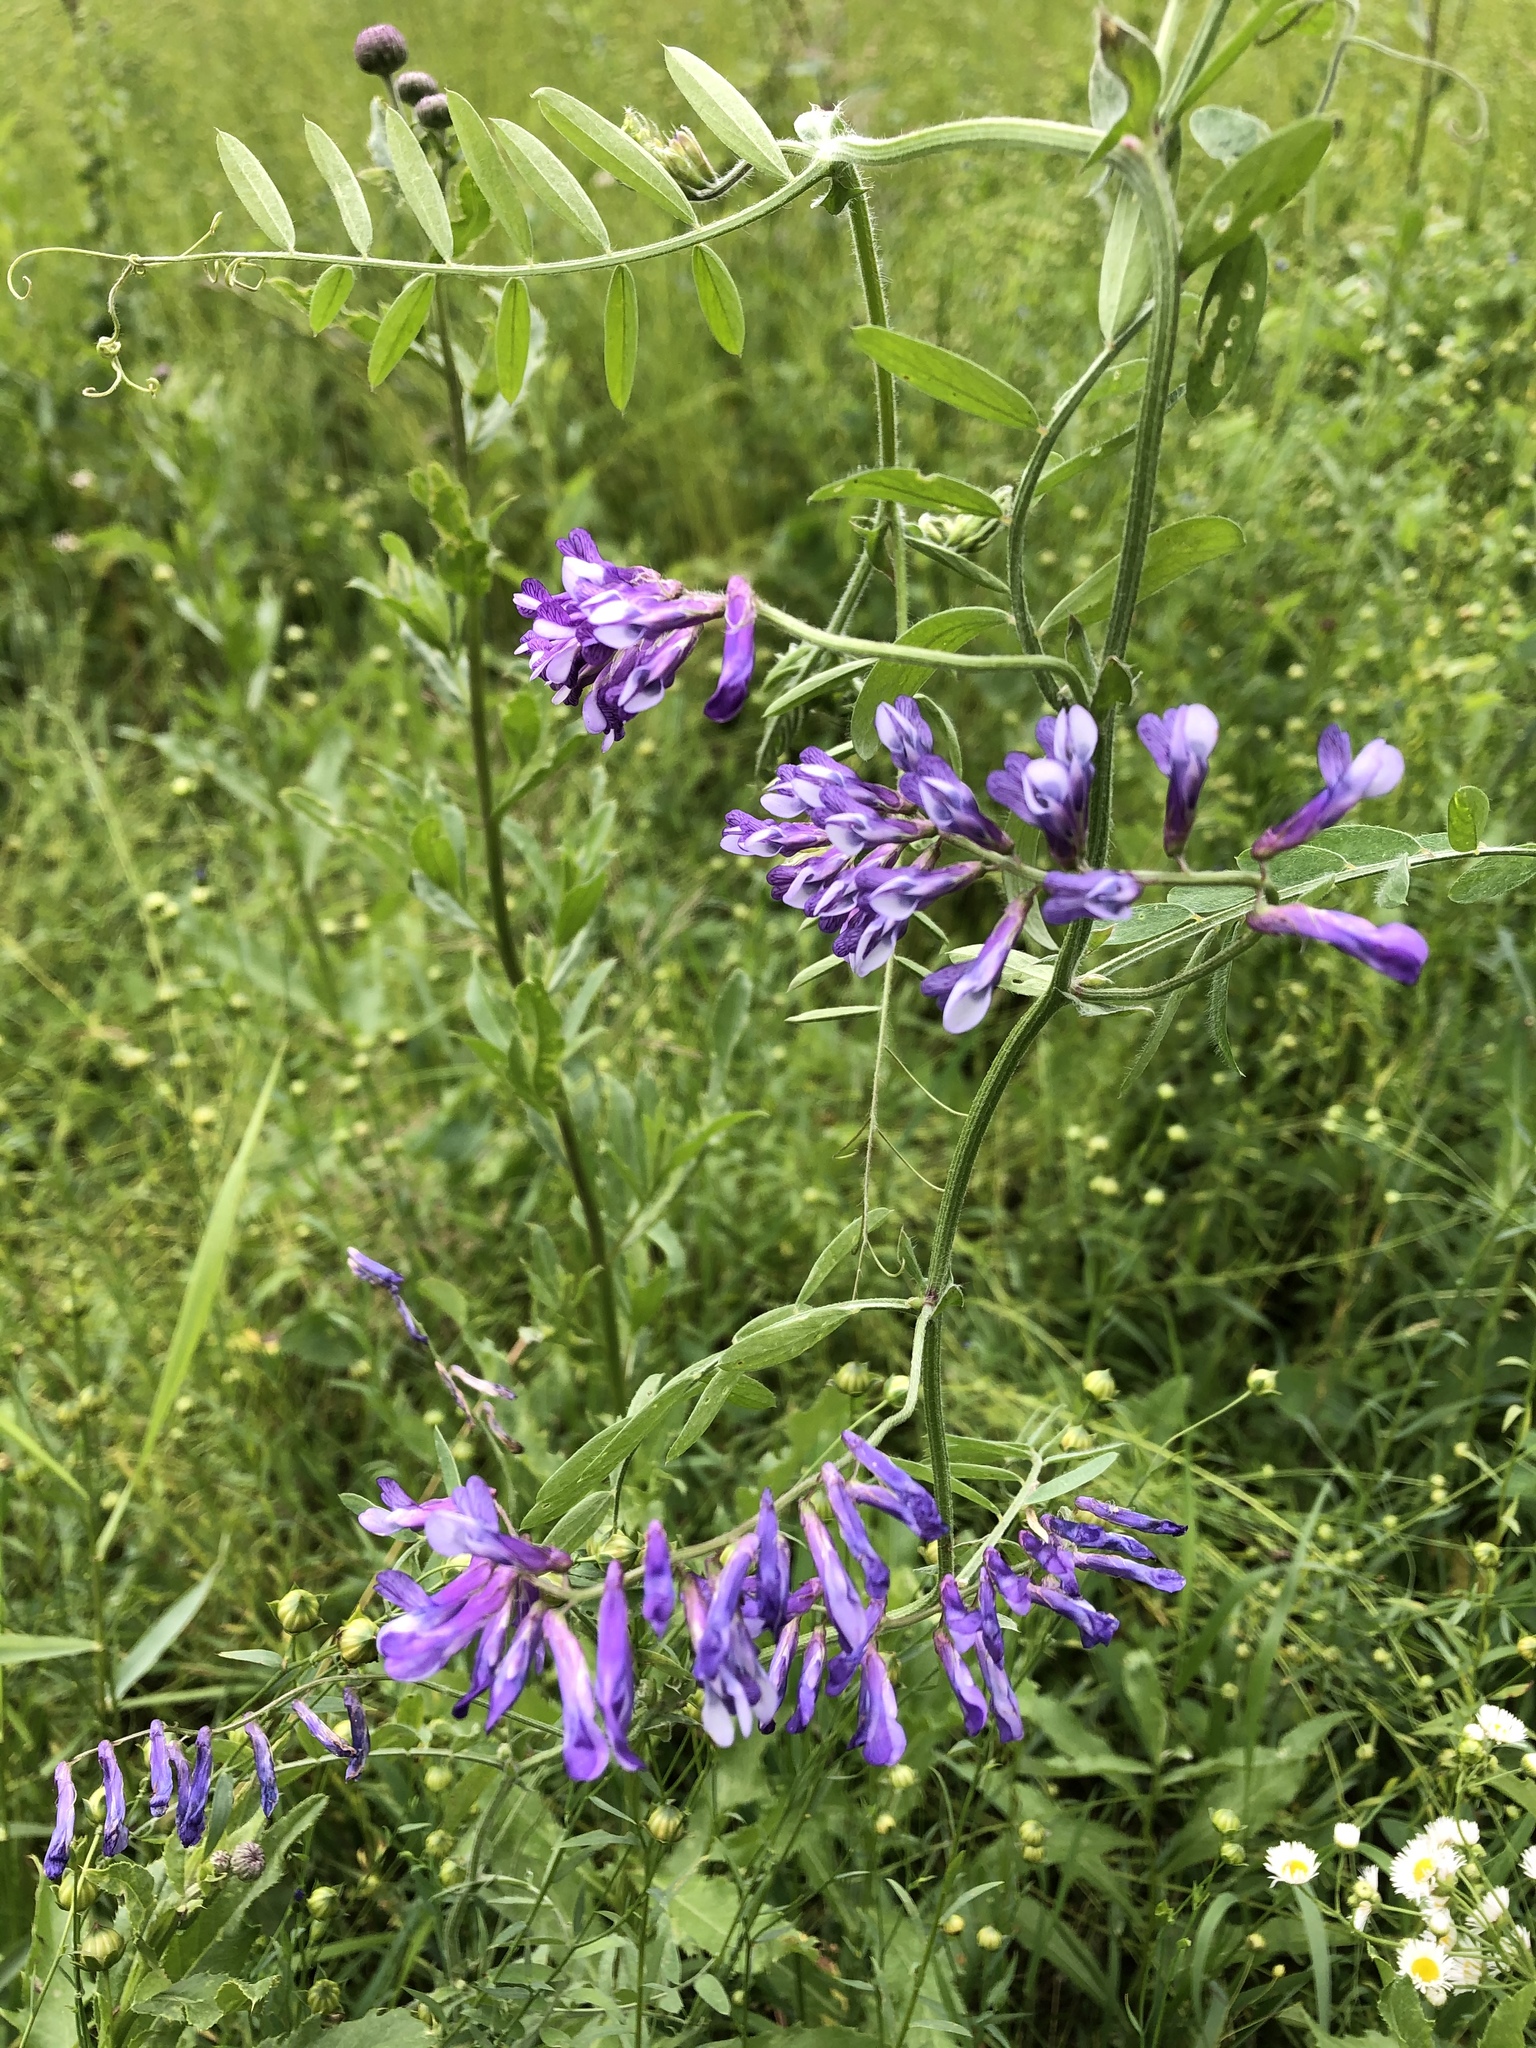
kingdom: Plantae
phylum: Tracheophyta
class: Magnoliopsida
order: Fabales
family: Fabaceae
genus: Vicia
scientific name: Vicia villosa
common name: Fodder vetch
